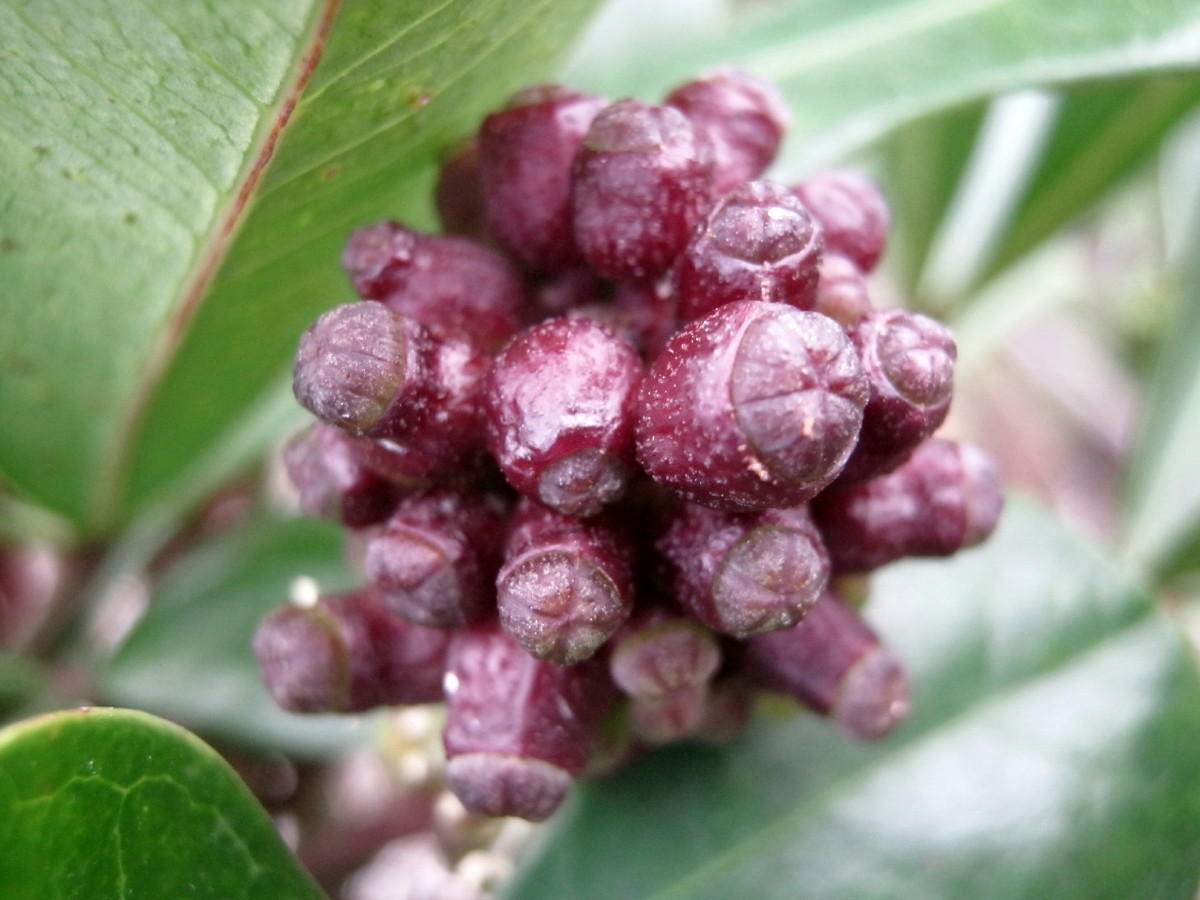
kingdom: Plantae
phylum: Tracheophyta
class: Magnoliopsida
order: Apiales
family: Araliaceae
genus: Cussonia
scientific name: Cussonia thyrsiflora
